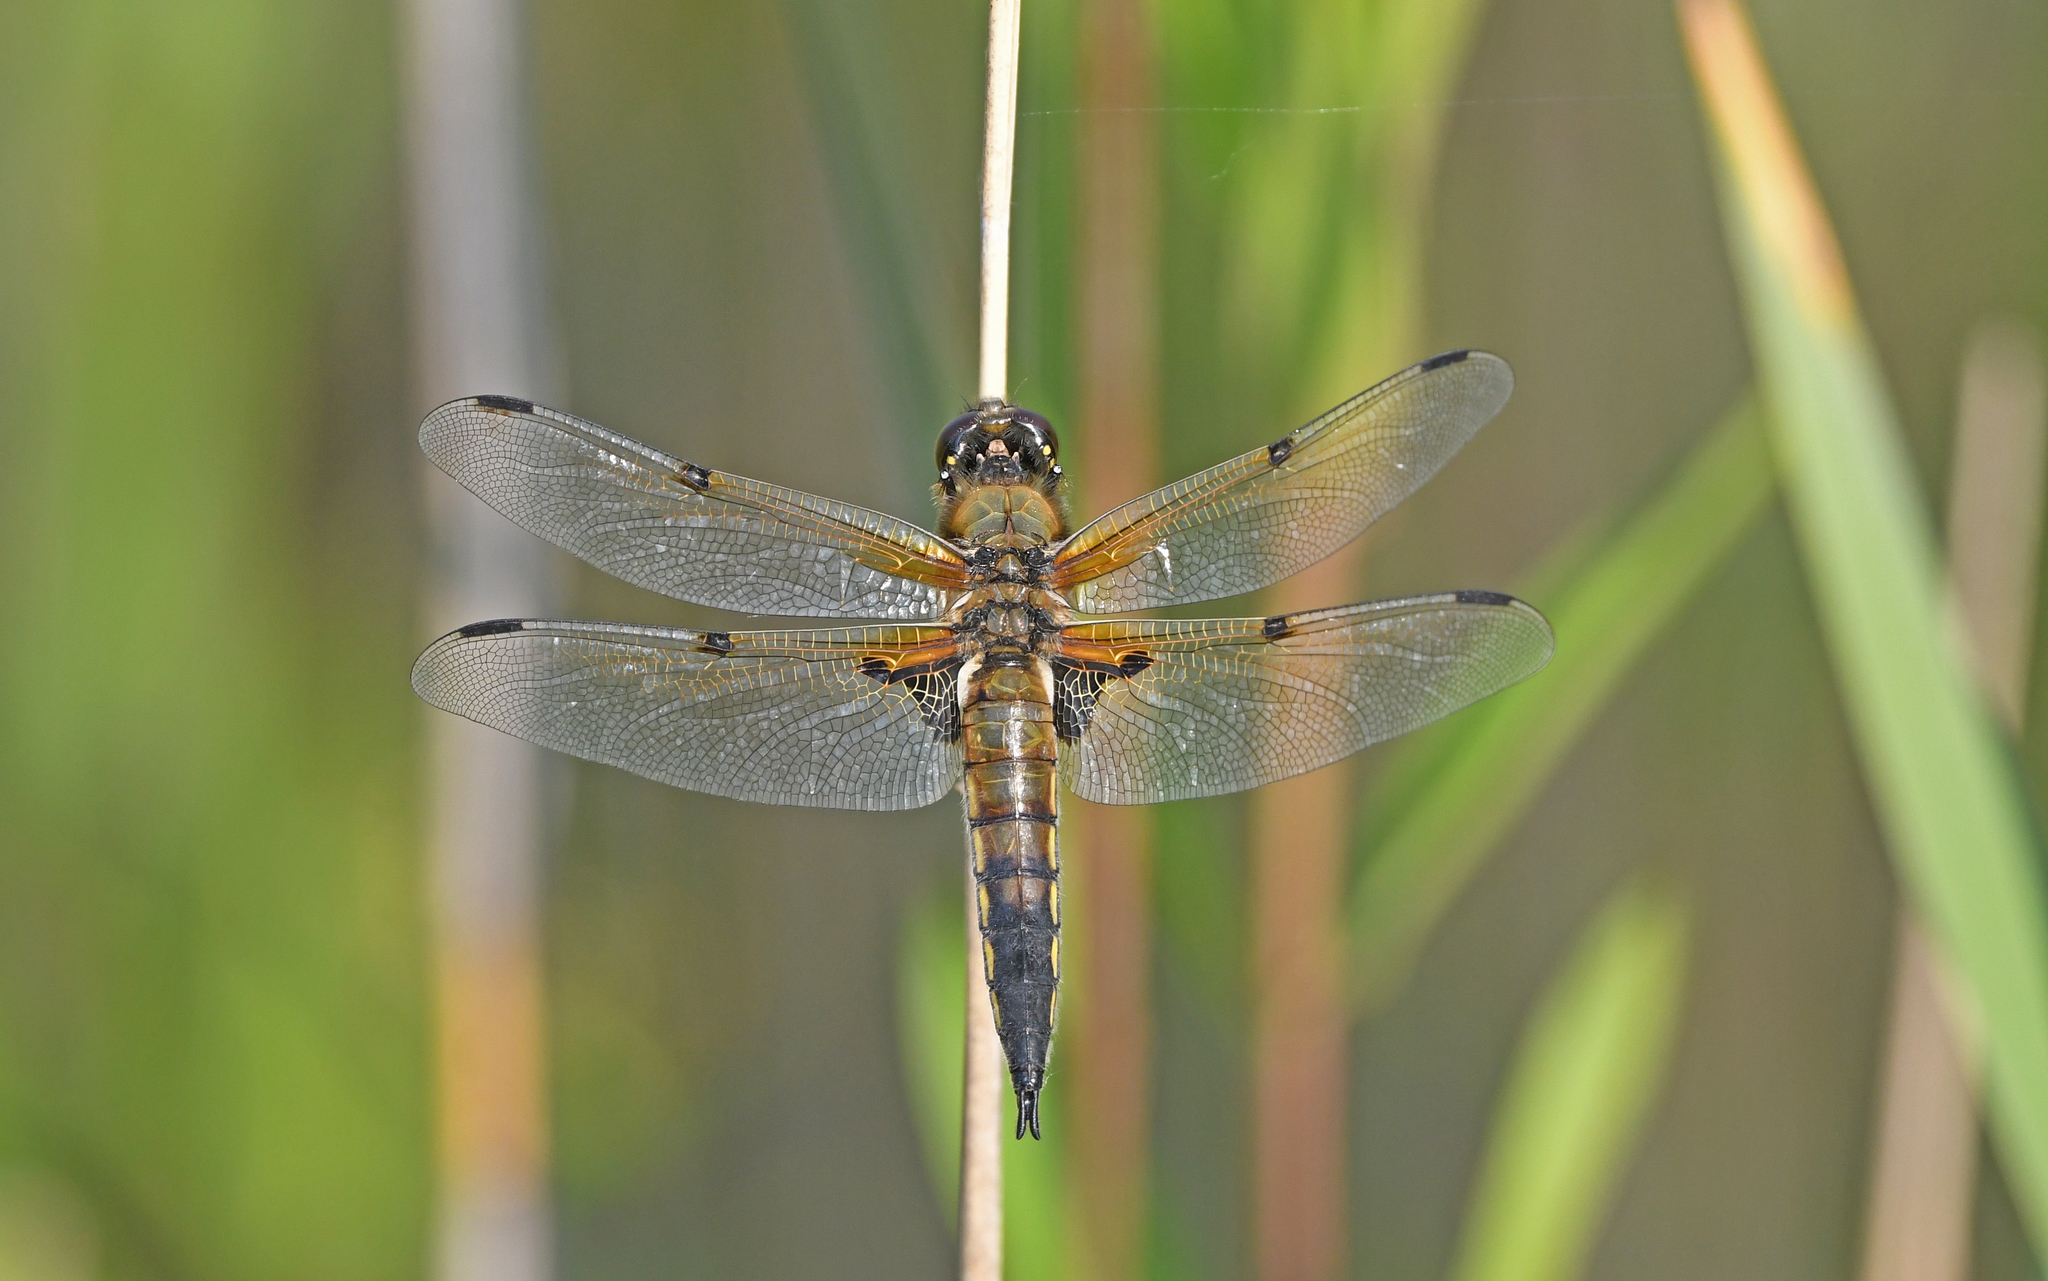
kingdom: Animalia
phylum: Arthropoda
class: Insecta
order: Odonata
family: Libellulidae
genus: Libellula
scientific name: Libellula quadrimaculata
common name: Four-spotted chaser
